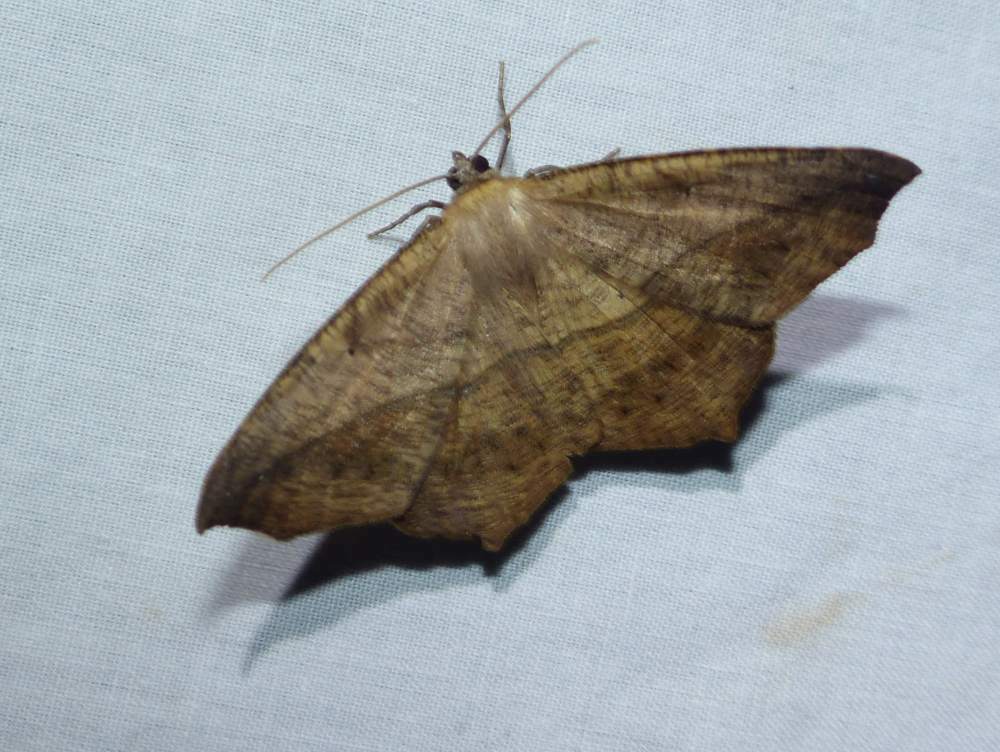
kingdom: Animalia
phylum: Arthropoda
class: Insecta
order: Lepidoptera
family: Geometridae
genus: Prochoerodes
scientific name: Prochoerodes lineola
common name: Large maple spanworm
